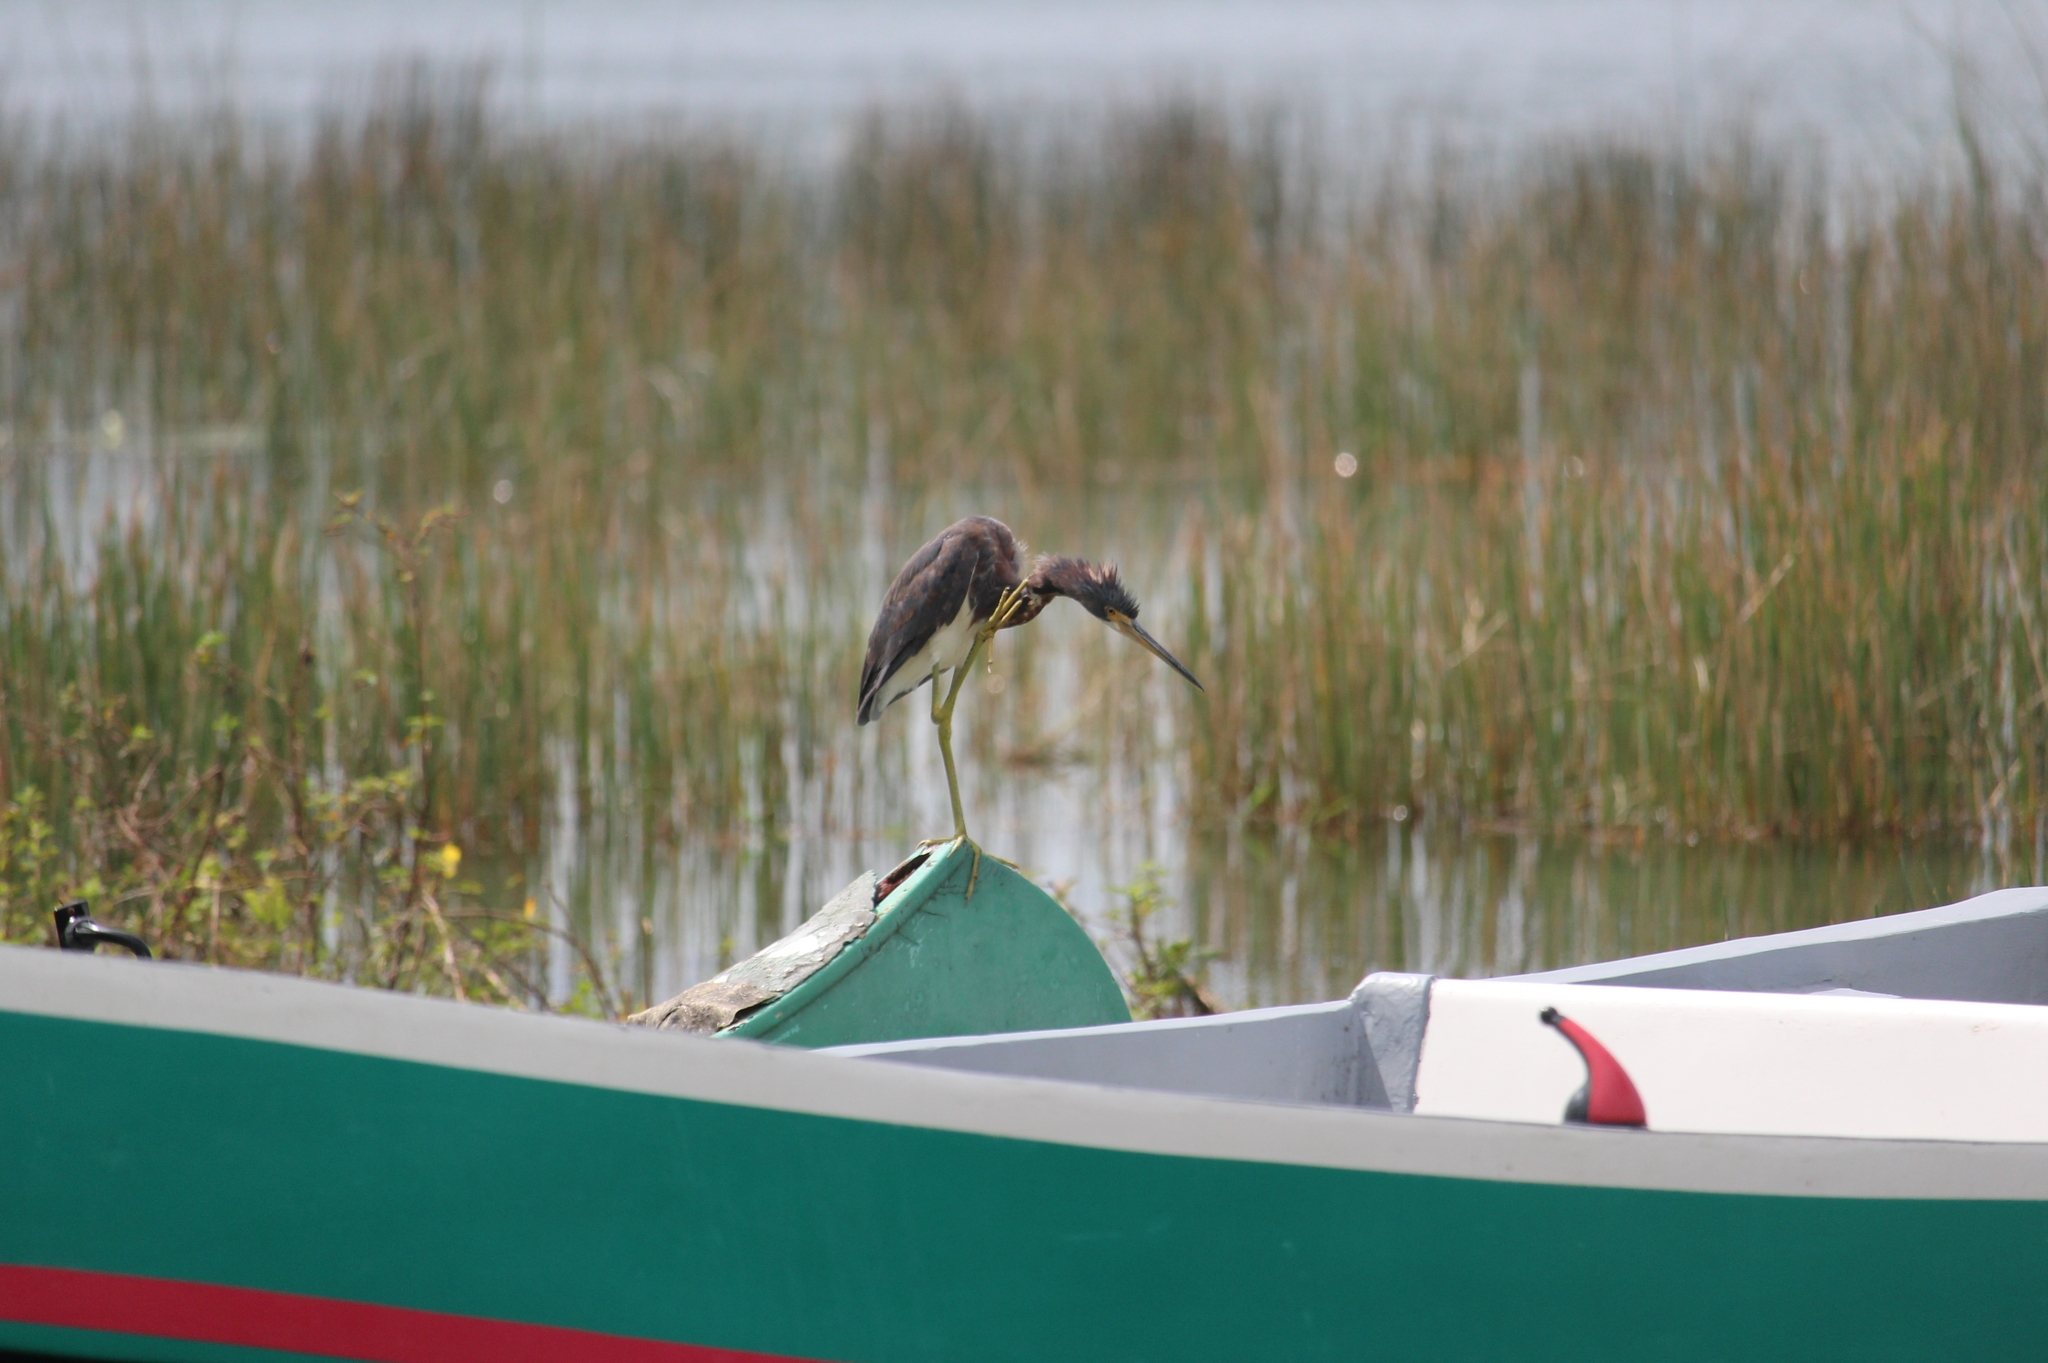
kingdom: Animalia
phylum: Chordata
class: Aves
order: Pelecaniformes
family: Ardeidae
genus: Egretta
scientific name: Egretta tricolor
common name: Tricolored heron
